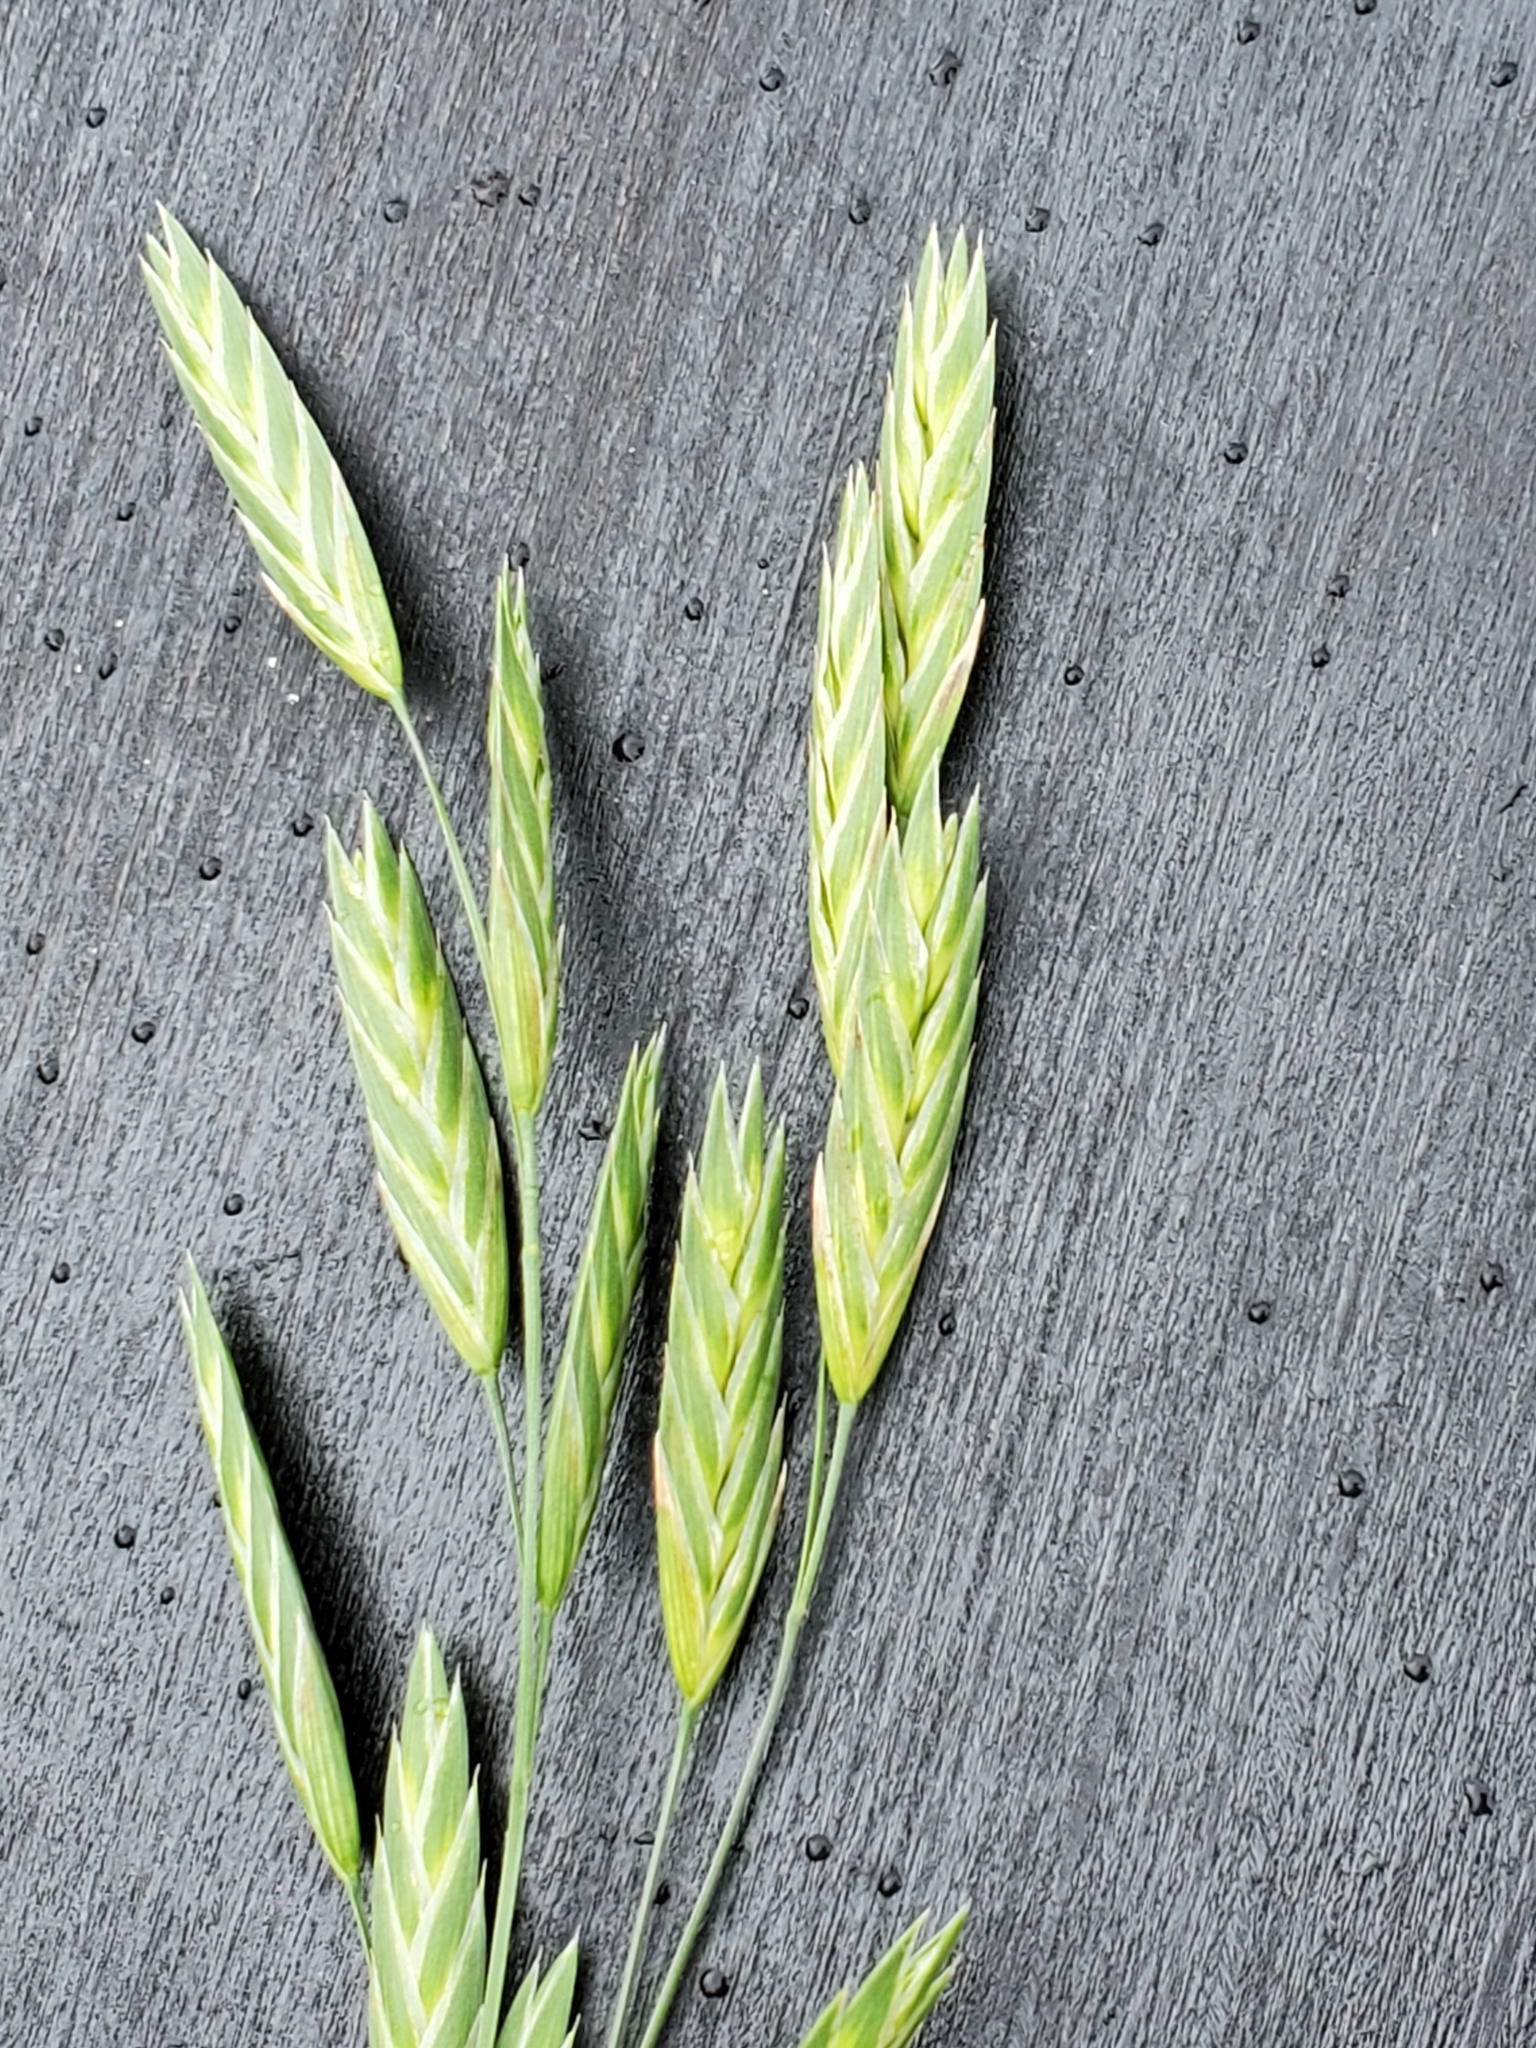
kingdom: Plantae
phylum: Tracheophyta
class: Liliopsida
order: Poales
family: Poaceae
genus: Bromus
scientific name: Bromus catharticus
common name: Rescuegrass
